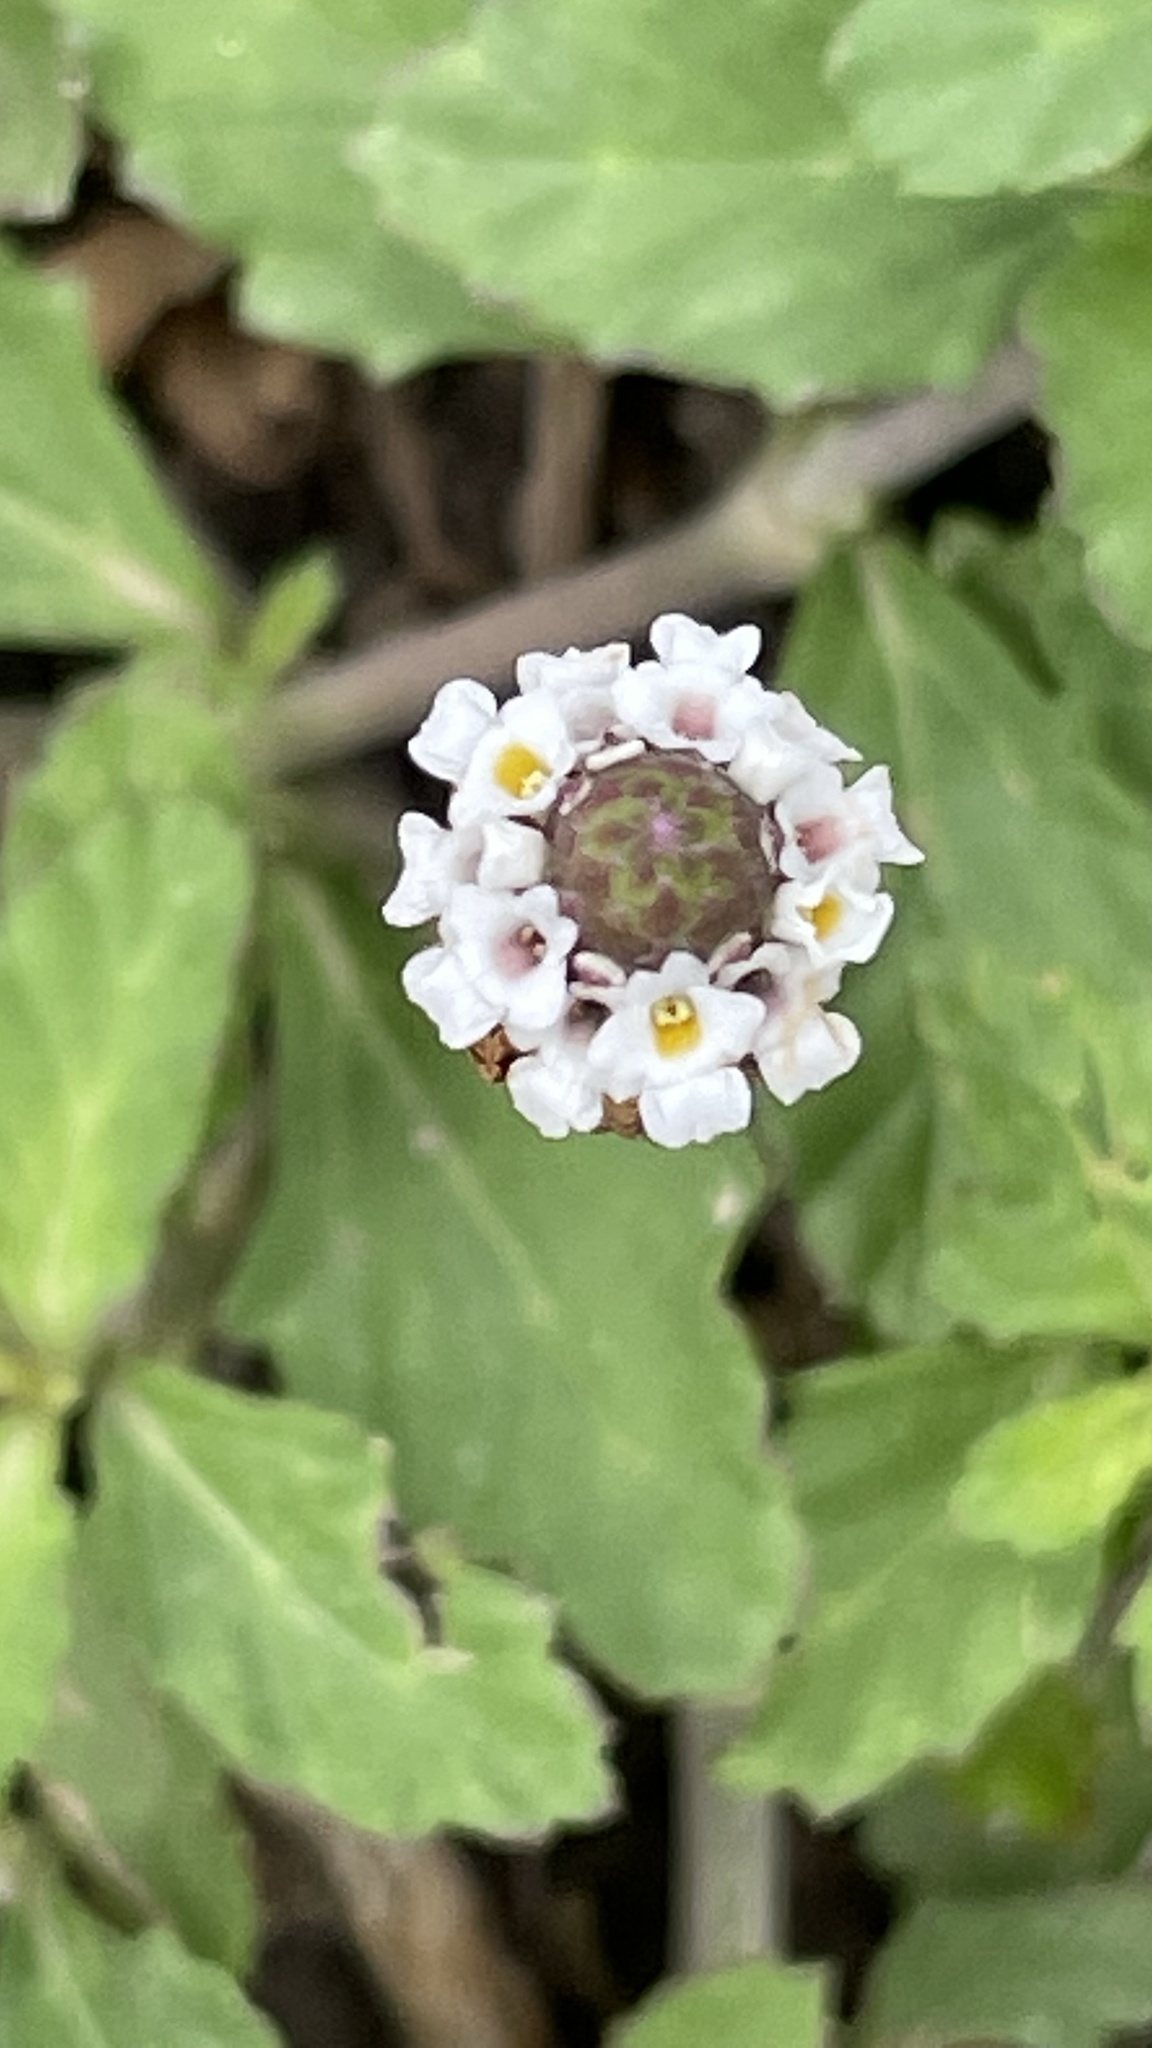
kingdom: Plantae
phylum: Tracheophyta
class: Magnoliopsida
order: Lamiales
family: Verbenaceae
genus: Phyla
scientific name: Phyla nodiflora
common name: Frogfruit
